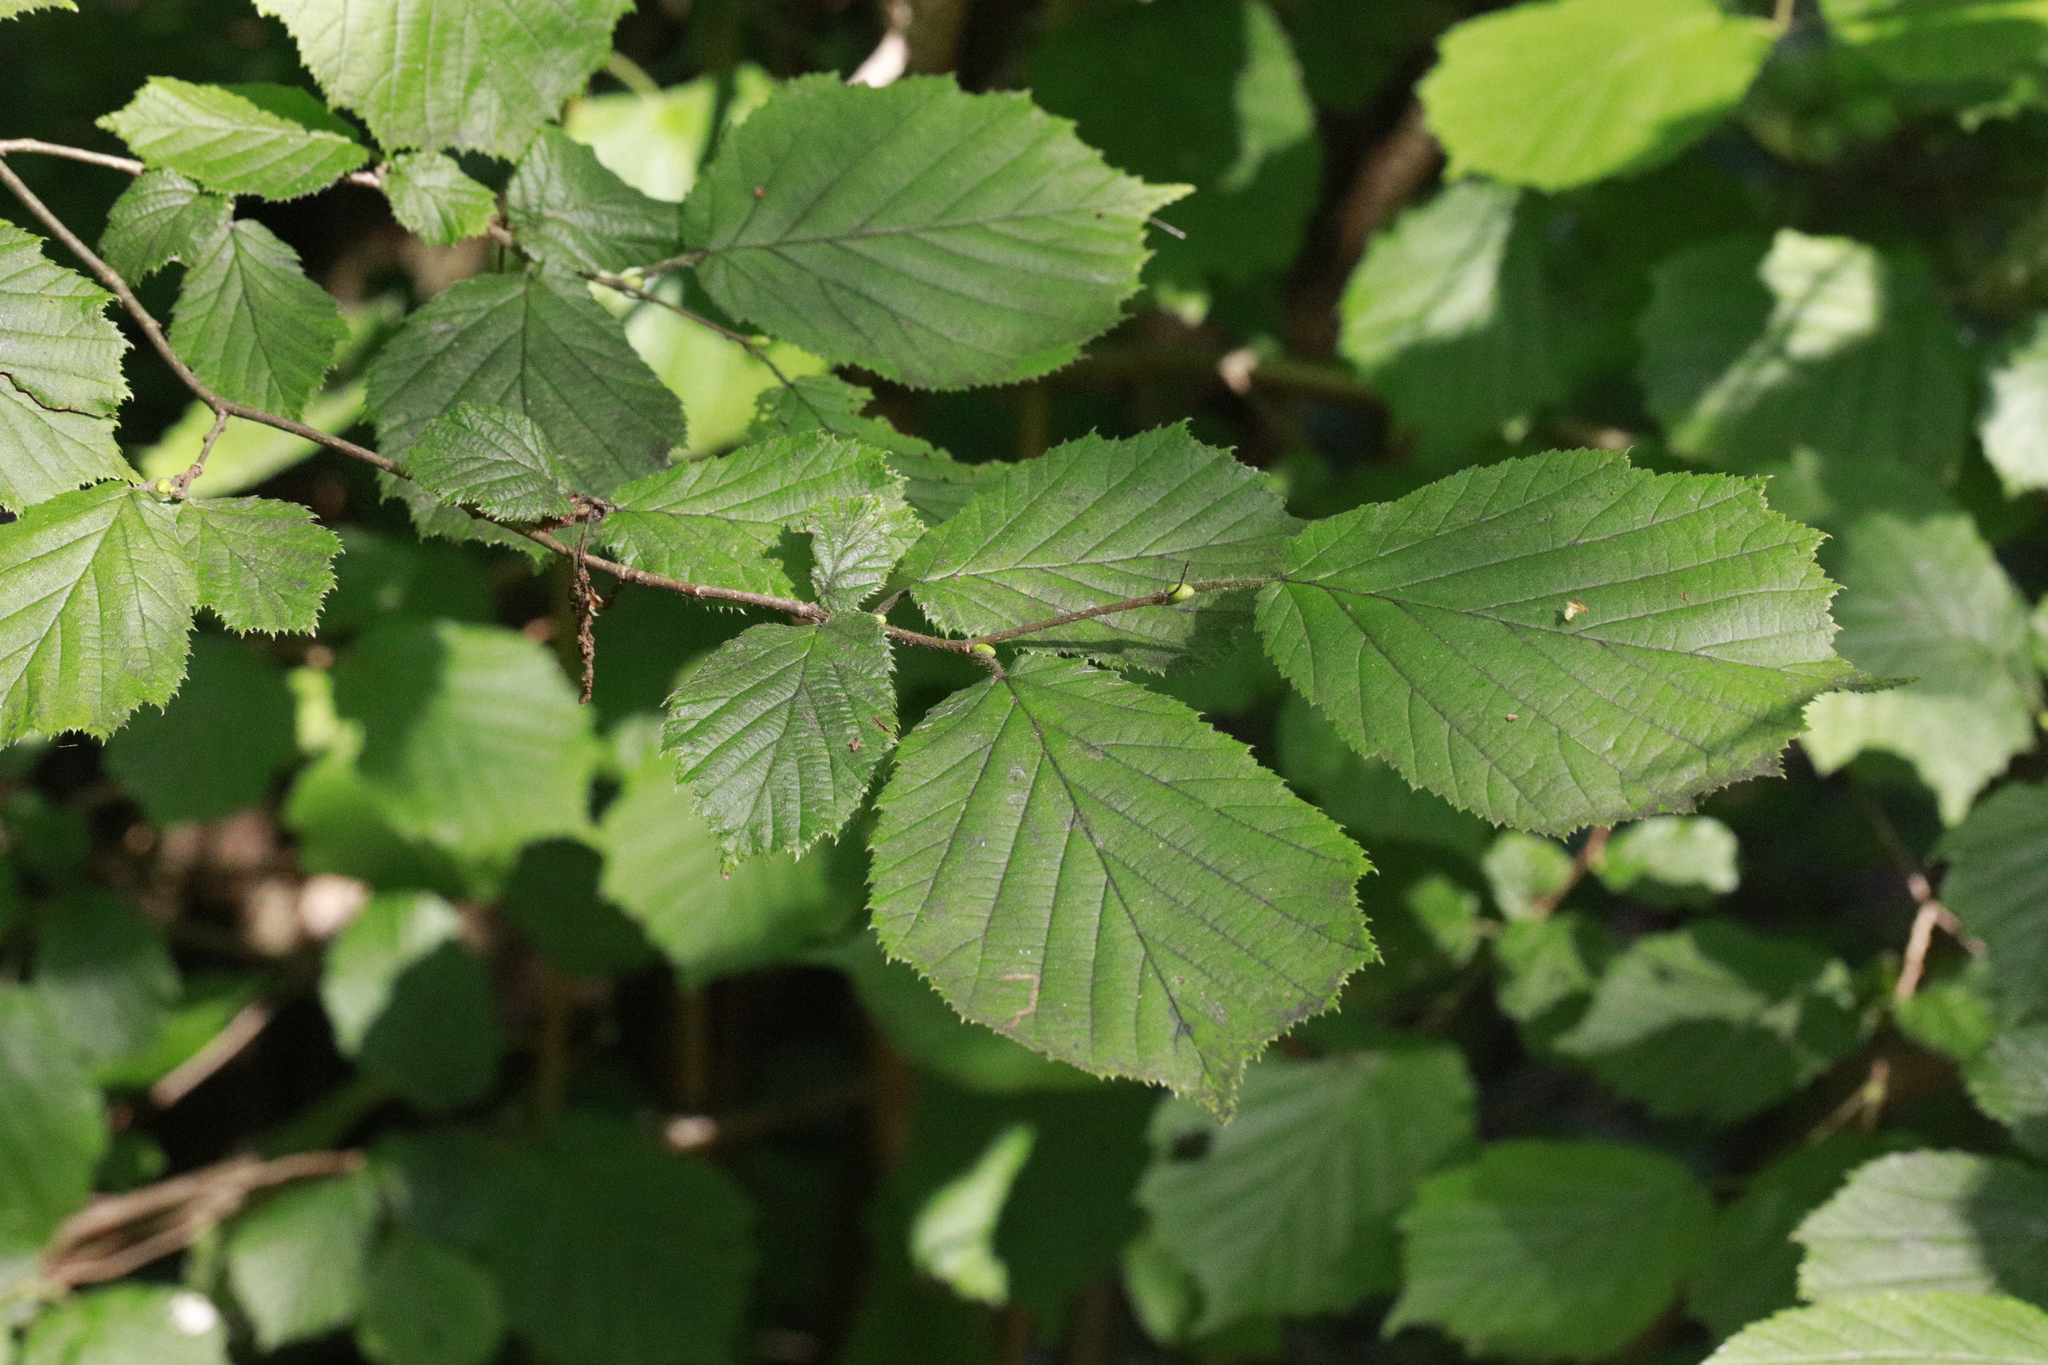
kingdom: Plantae
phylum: Tracheophyta
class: Magnoliopsida
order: Fagales
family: Betulaceae
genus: Corylus
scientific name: Corylus avellana
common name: European hazel
